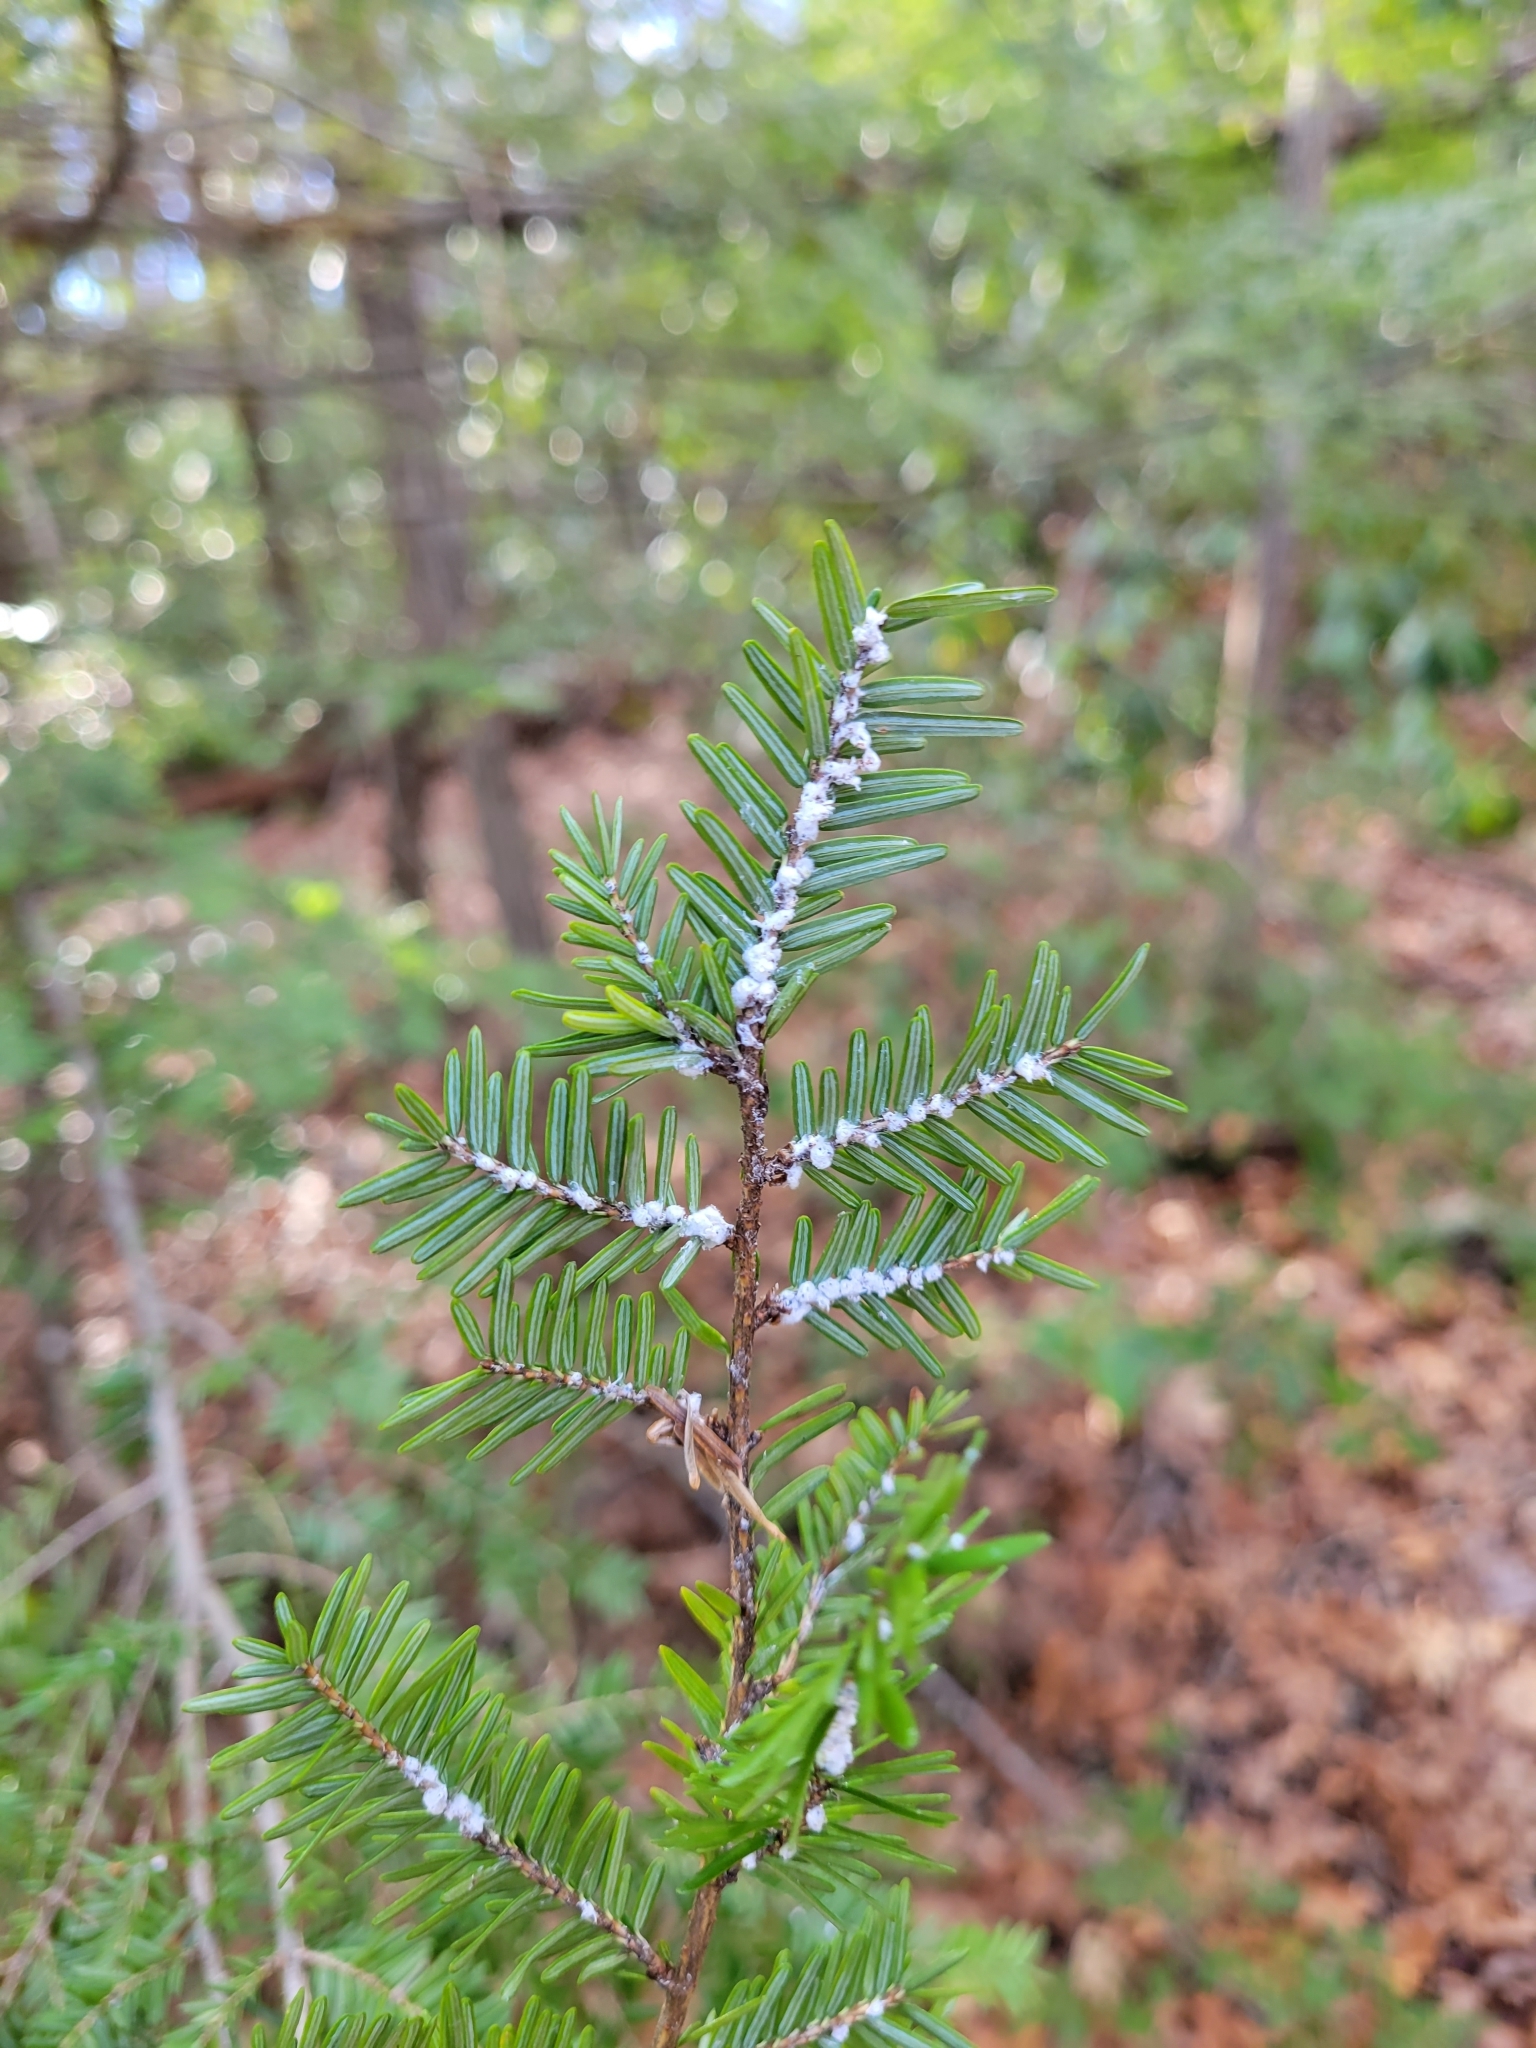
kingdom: Animalia
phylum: Arthropoda
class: Insecta
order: Hemiptera
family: Adelgidae
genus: Adelges
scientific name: Adelges tsugae
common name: Hemlock woolly adelgid
